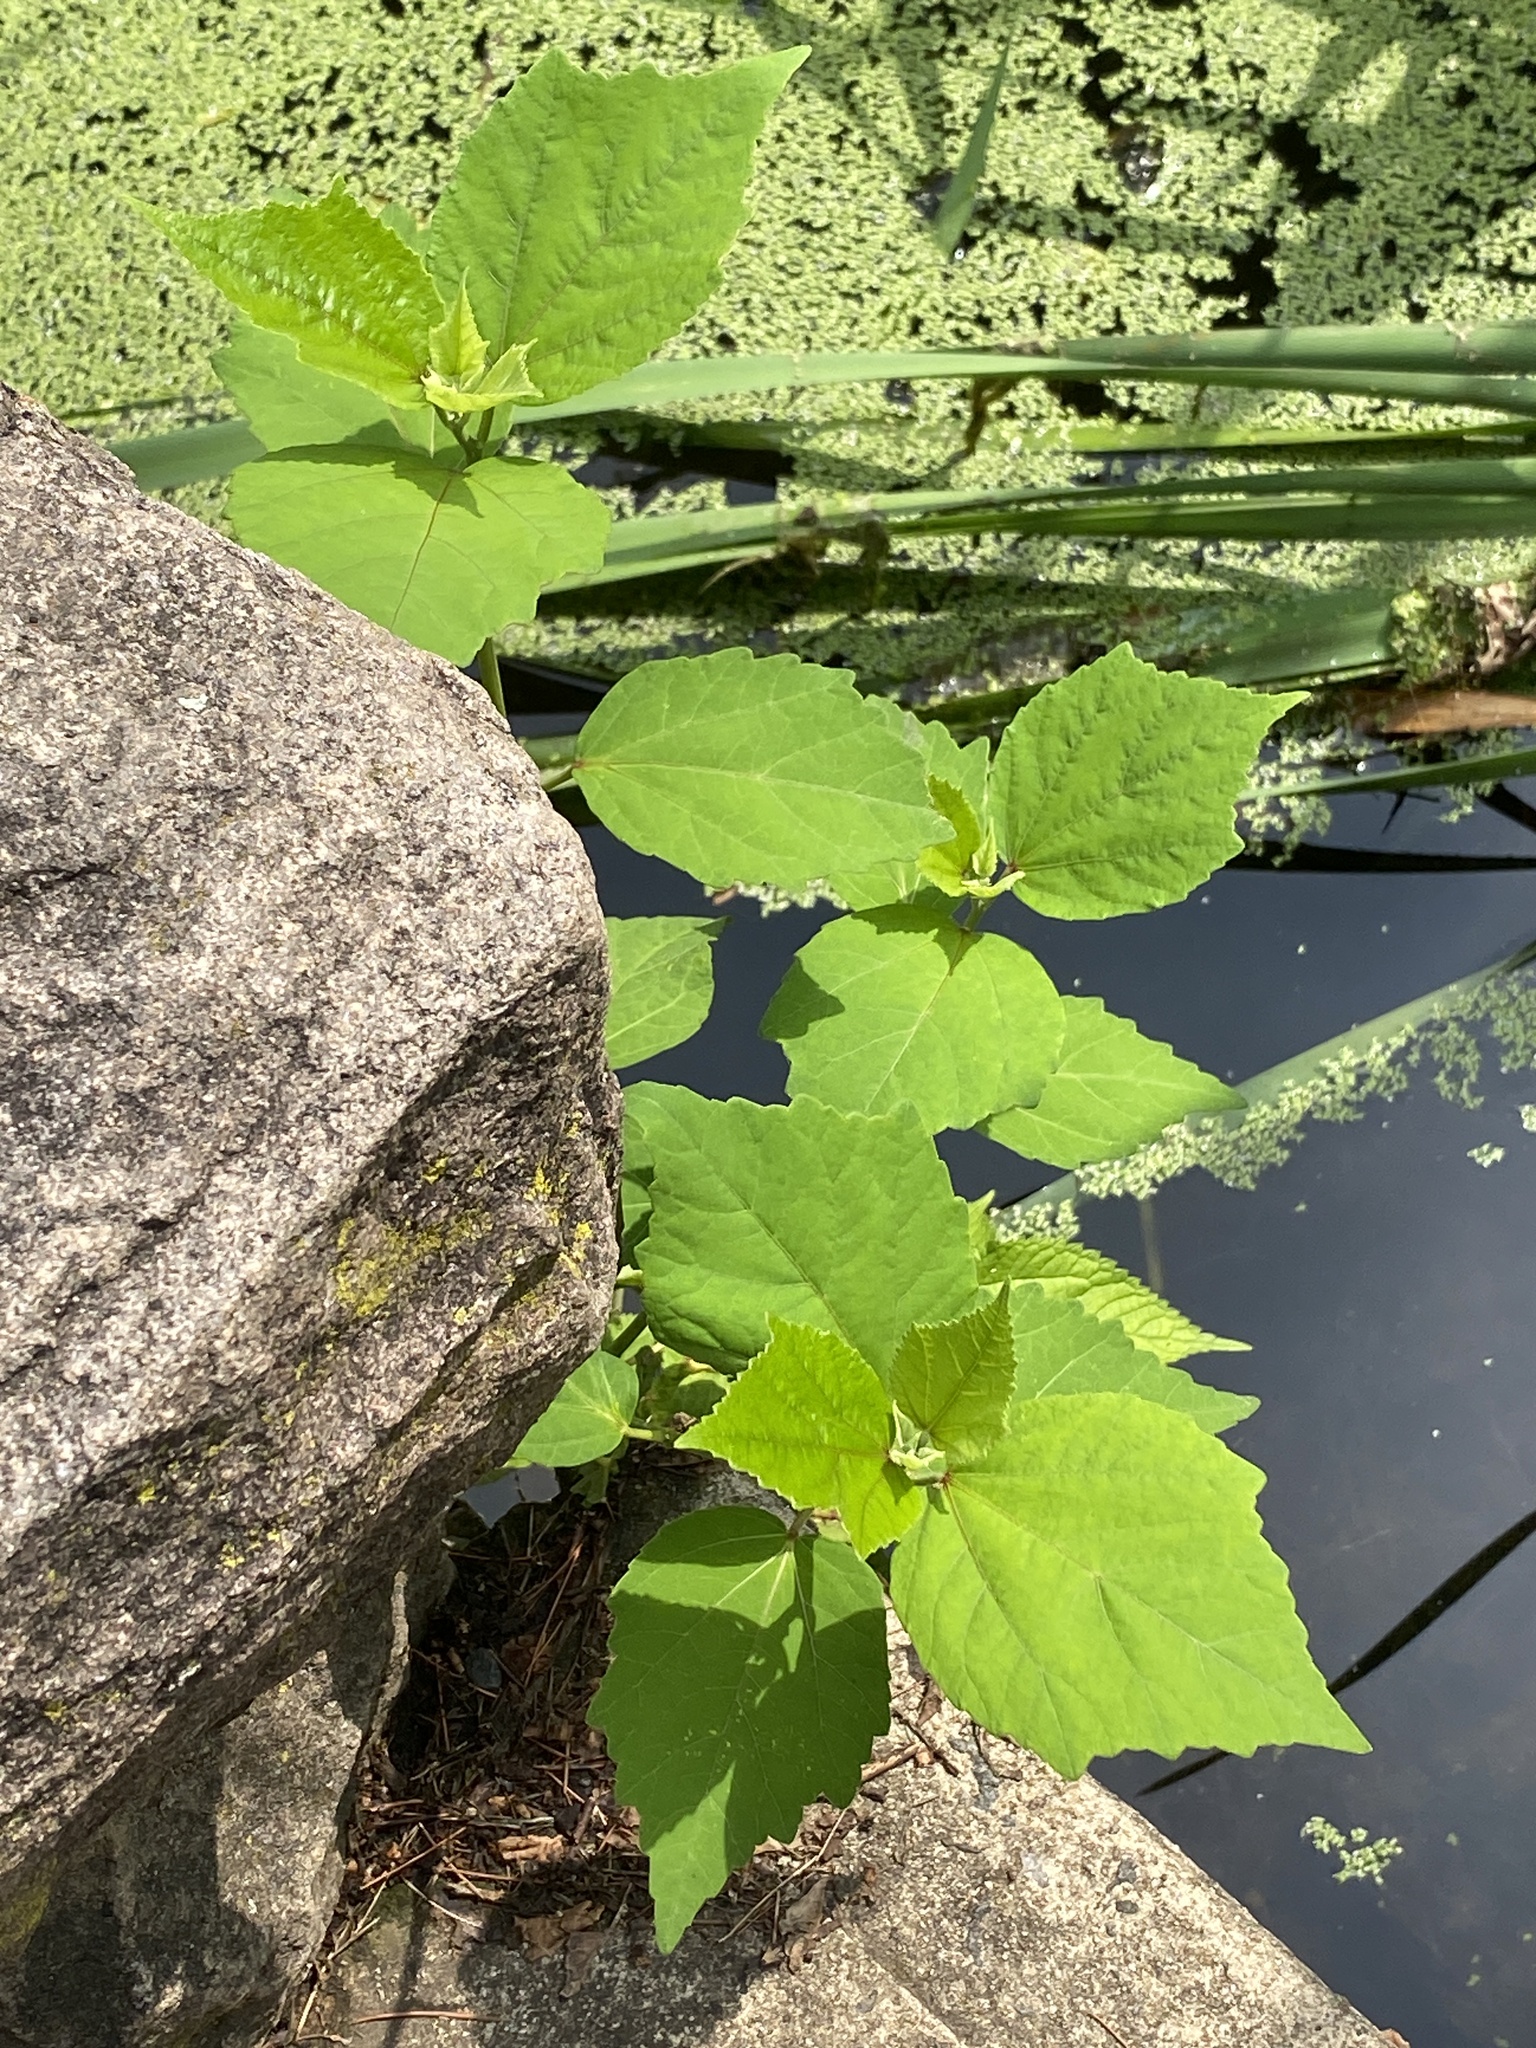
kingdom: Plantae
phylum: Tracheophyta
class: Magnoliopsida
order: Malvales
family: Malvaceae
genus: Hibiscus
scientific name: Hibiscus moscheutos
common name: Common rose-mallow
